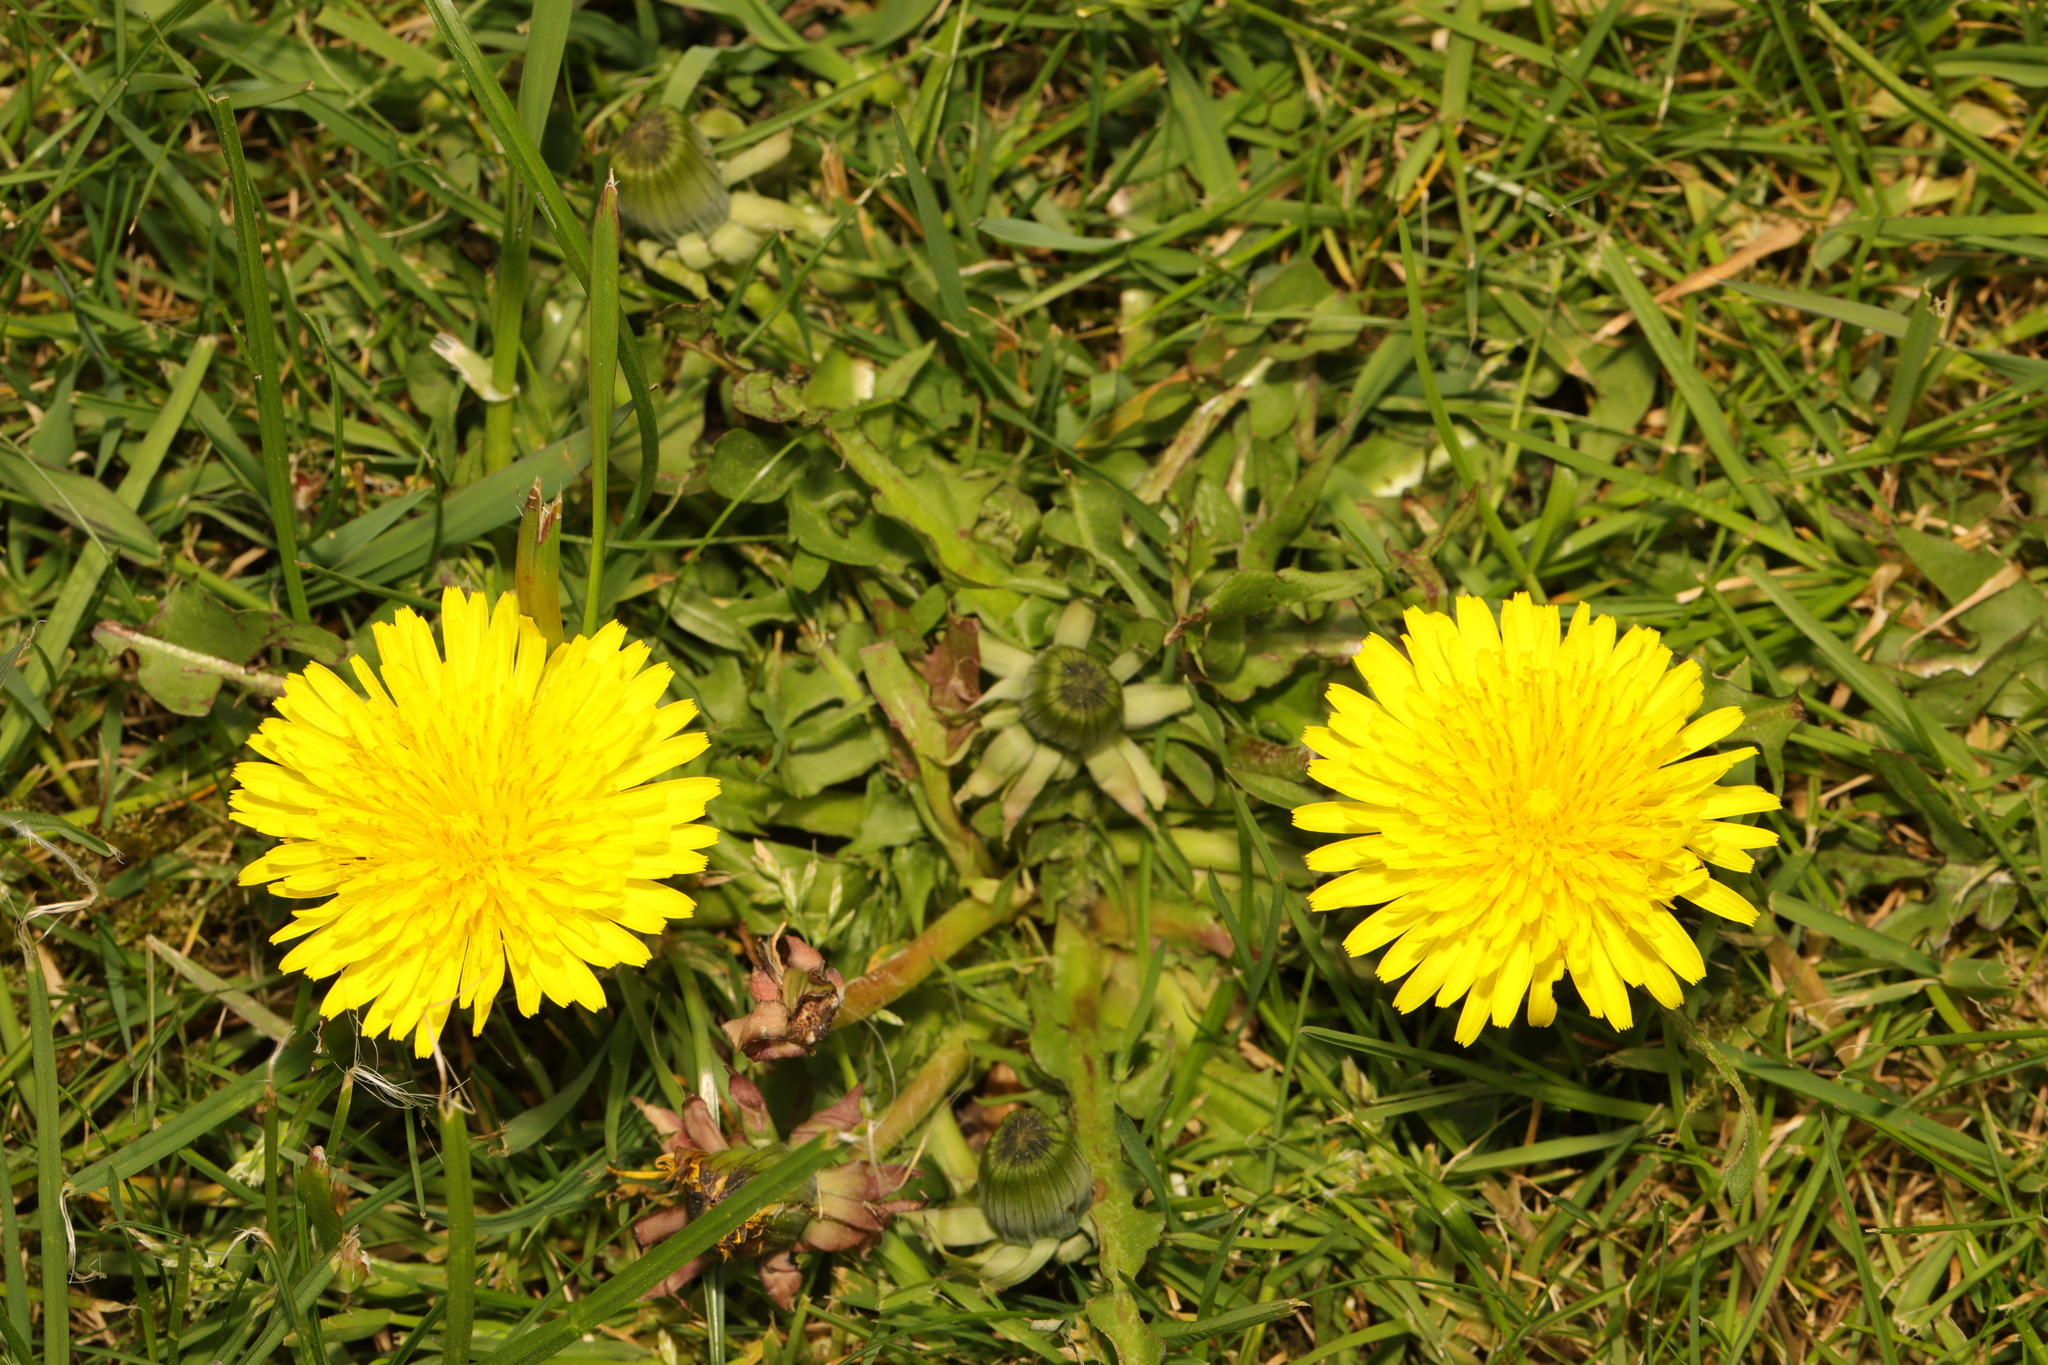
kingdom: Plantae
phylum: Tracheophyta
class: Magnoliopsida
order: Asterales
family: Asteraceae
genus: Taraxacum
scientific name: Taraxacum officinale
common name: Common dandelion
